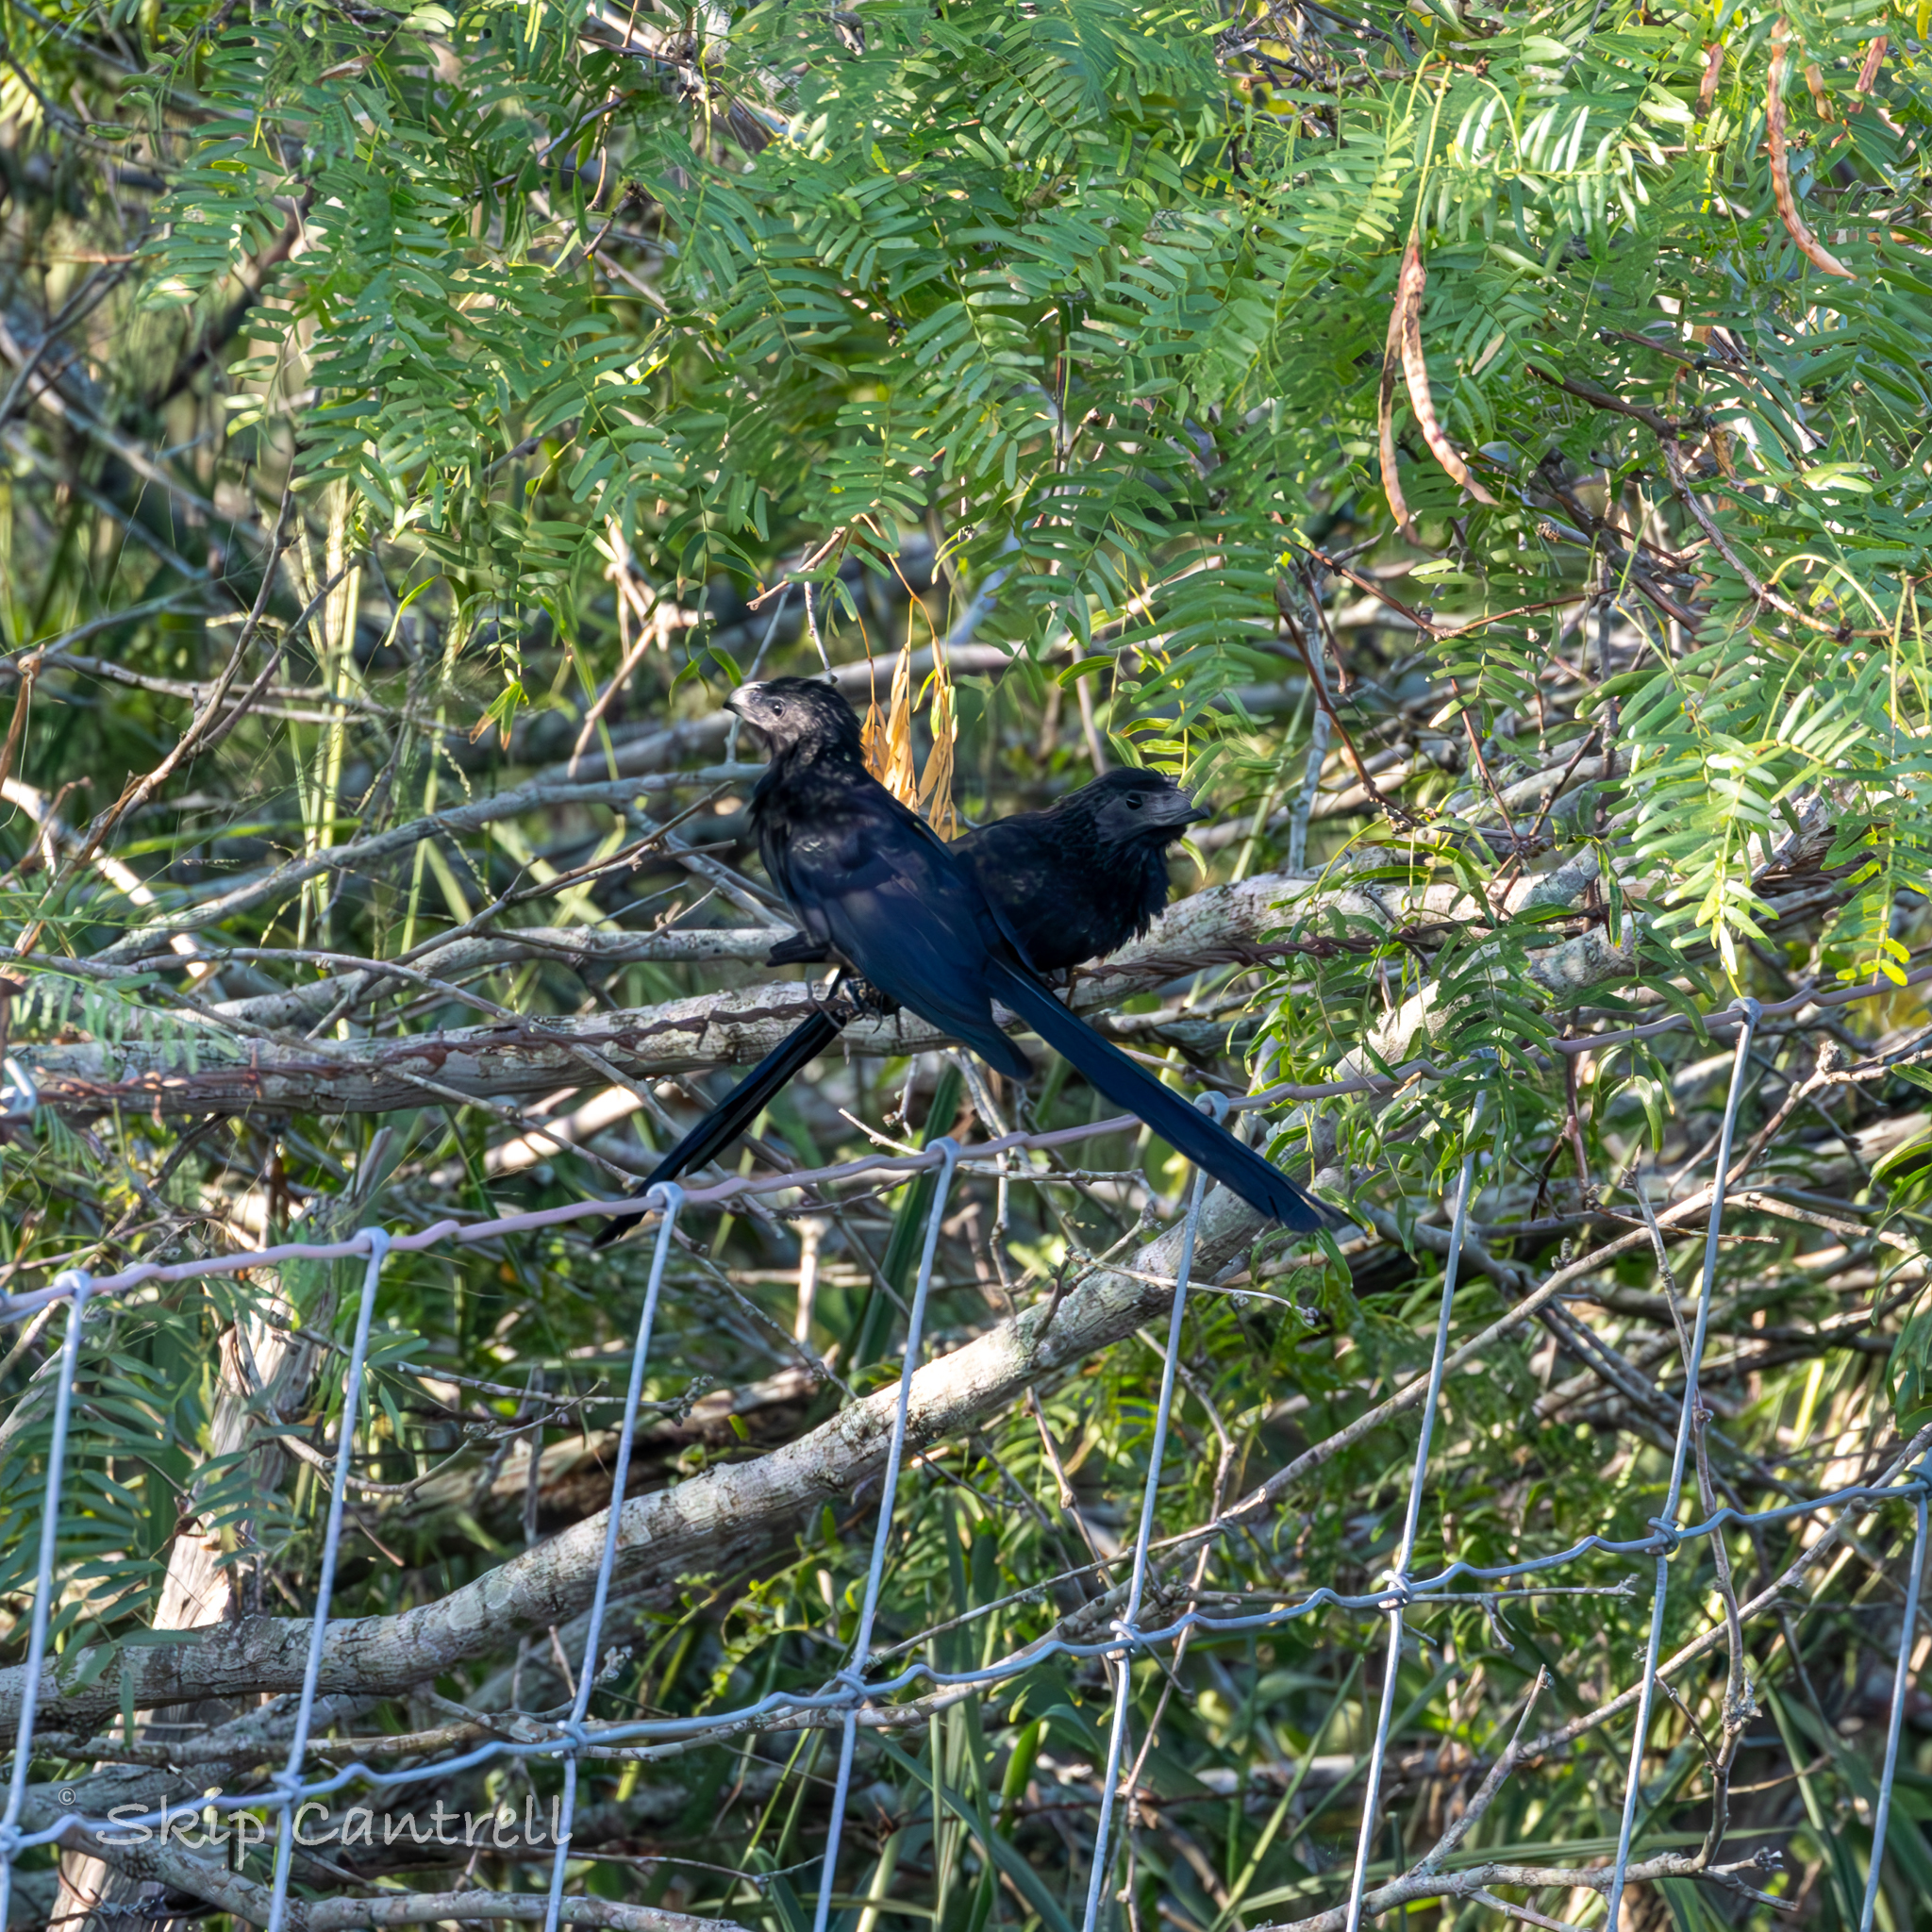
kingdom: Animalia
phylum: Chordata
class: Aves
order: Cuculiformes
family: Cuculidae
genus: Crotophaga
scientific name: Crotophaga sulcirostris
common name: Groove-billed ani
